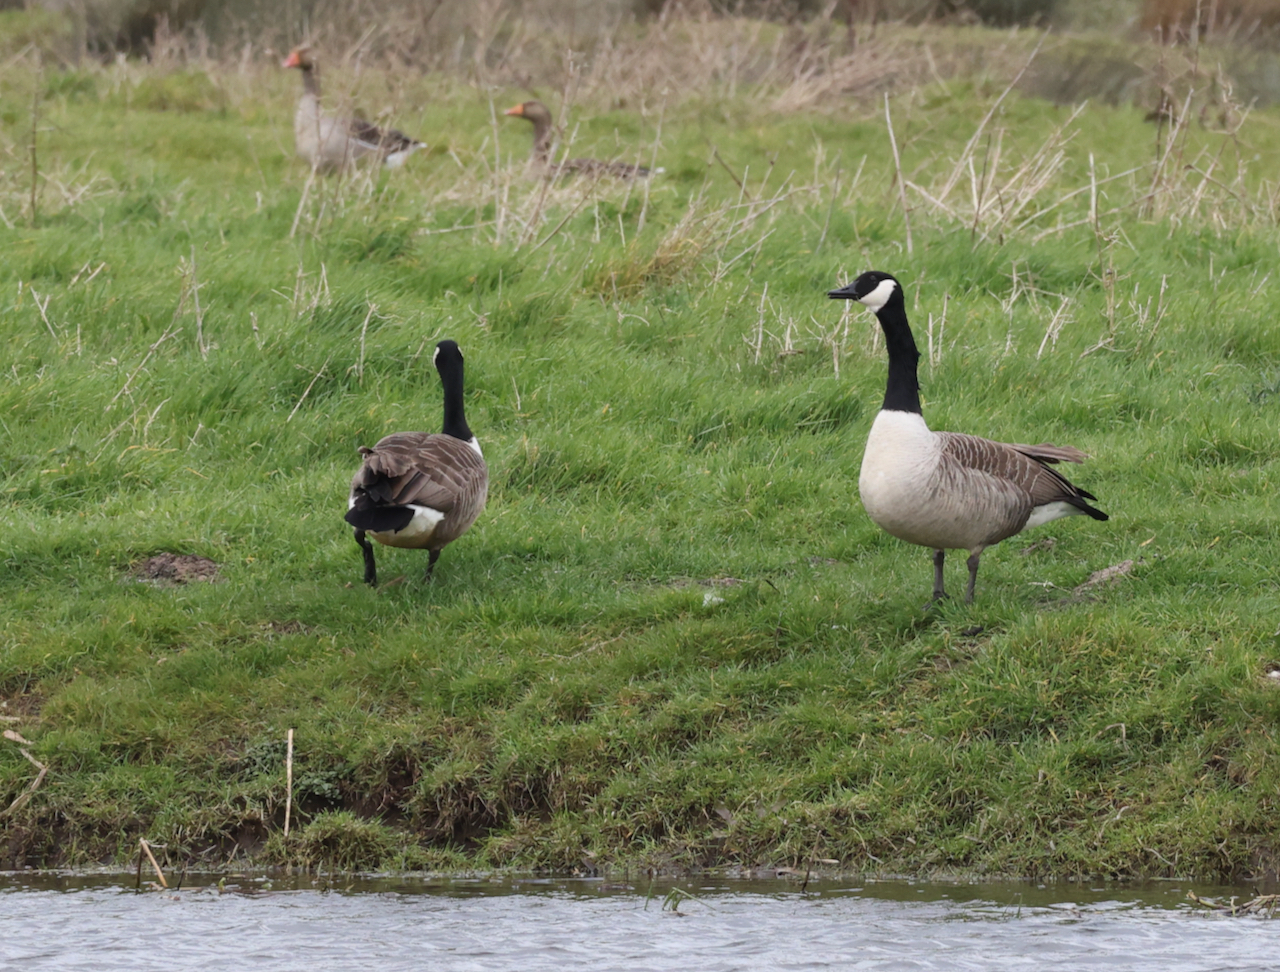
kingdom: Animalia
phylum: Chordata
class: Aves
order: Anseriformes
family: Anatidae
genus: Branta
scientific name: Branta canadensis
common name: Canada goose
